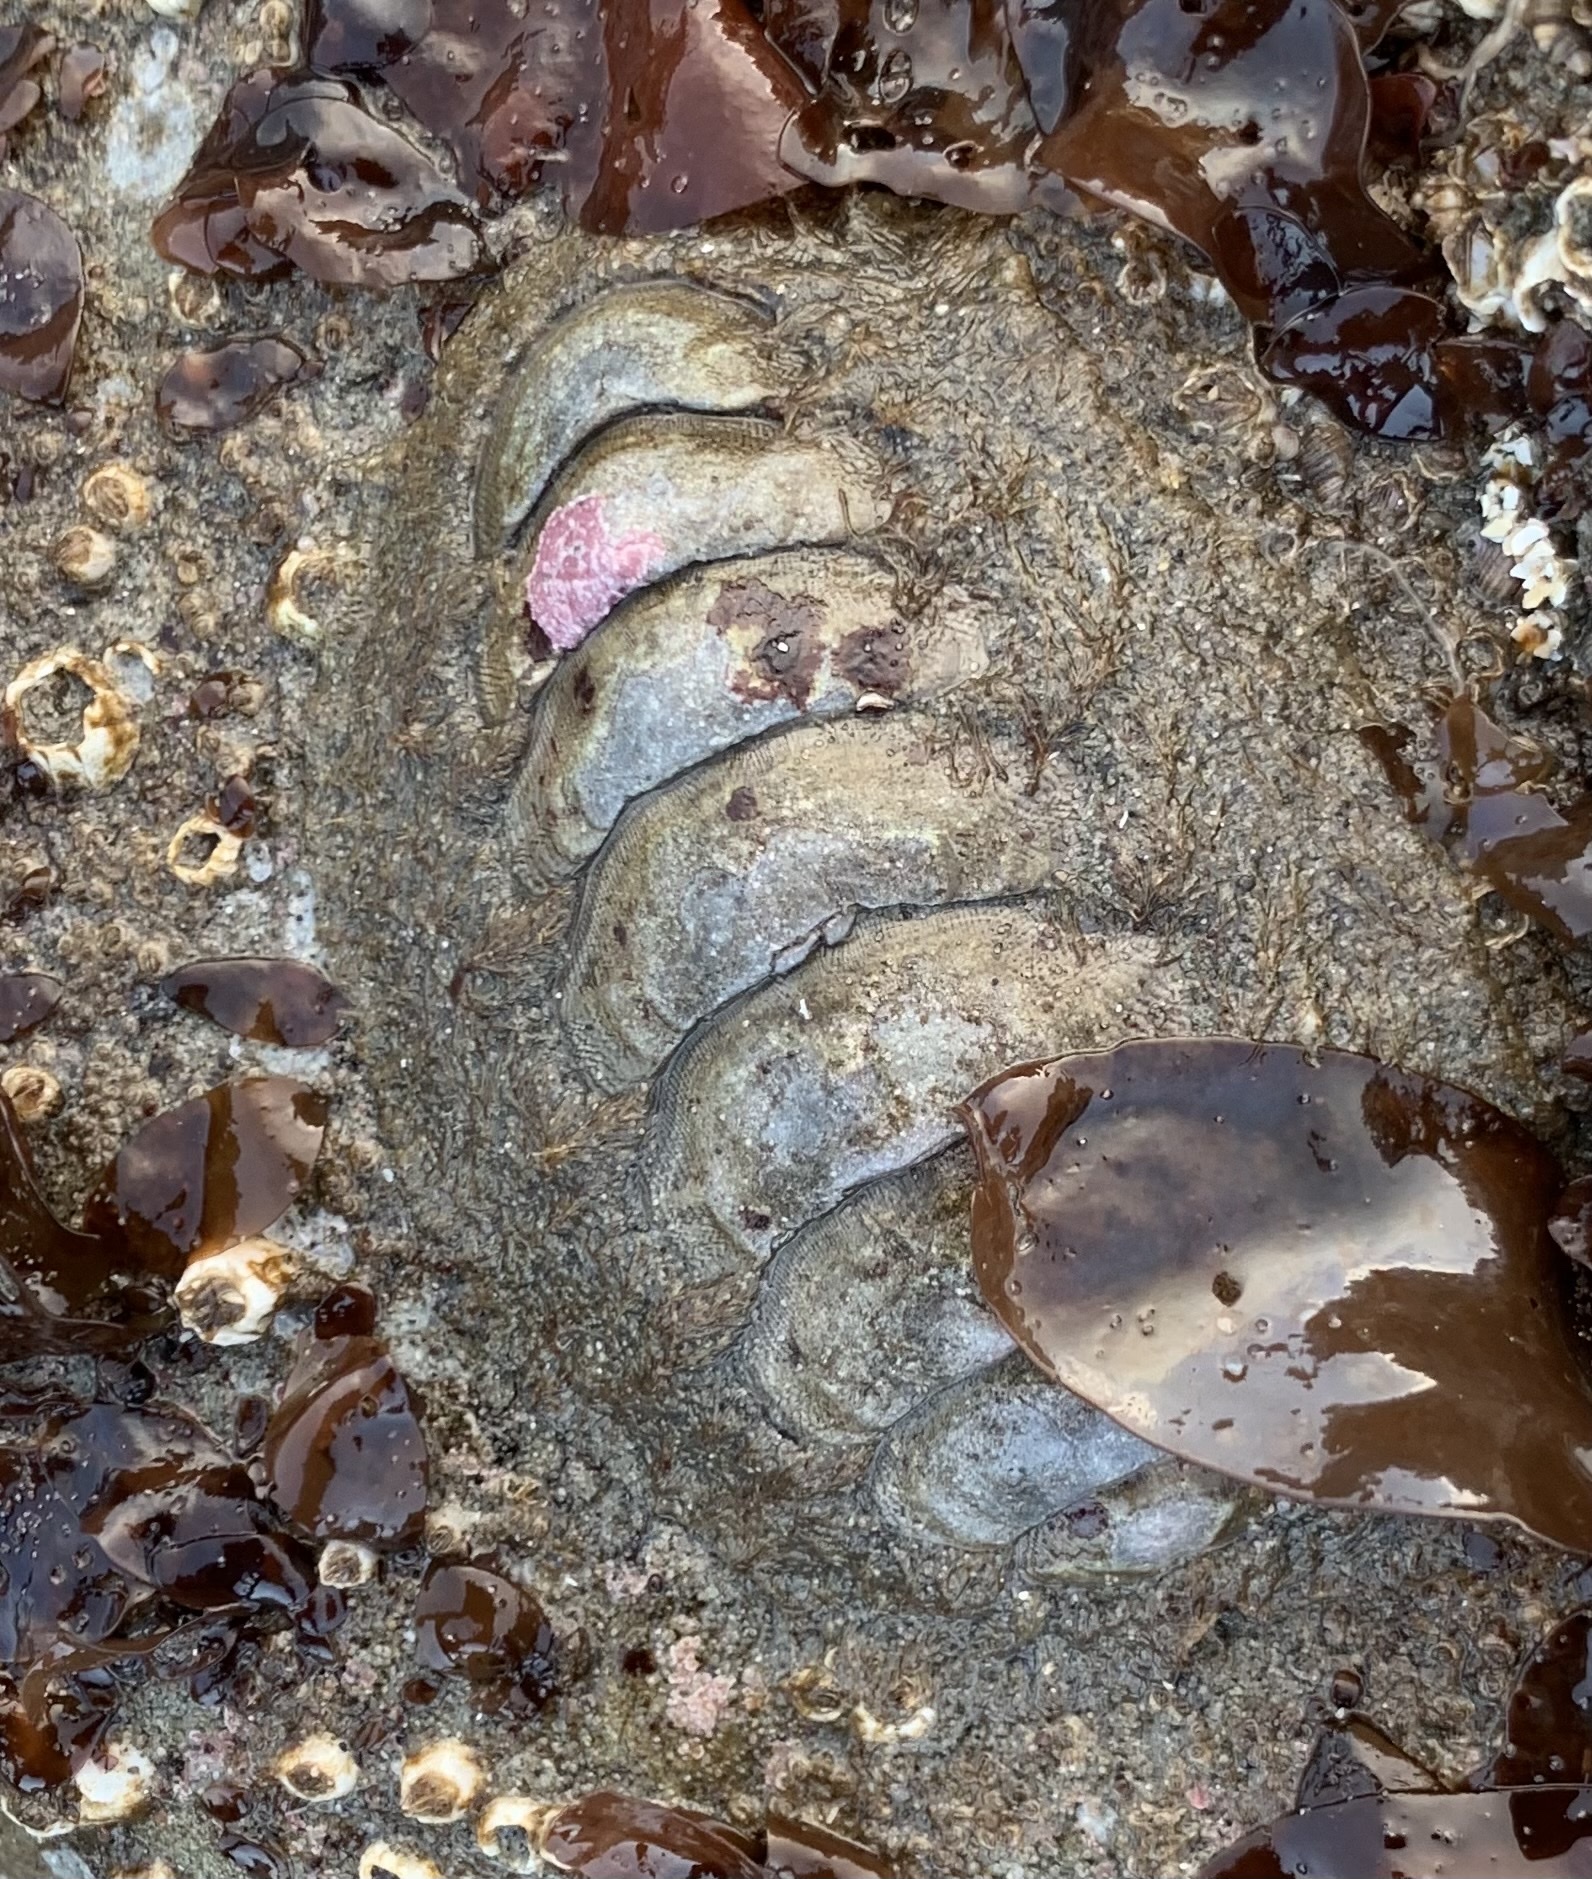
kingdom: Animalia
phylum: Mollusca
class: Polyplacophora
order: Chitonida
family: Mopaliidae
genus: Mopalia
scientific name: Mopalia hindsii
